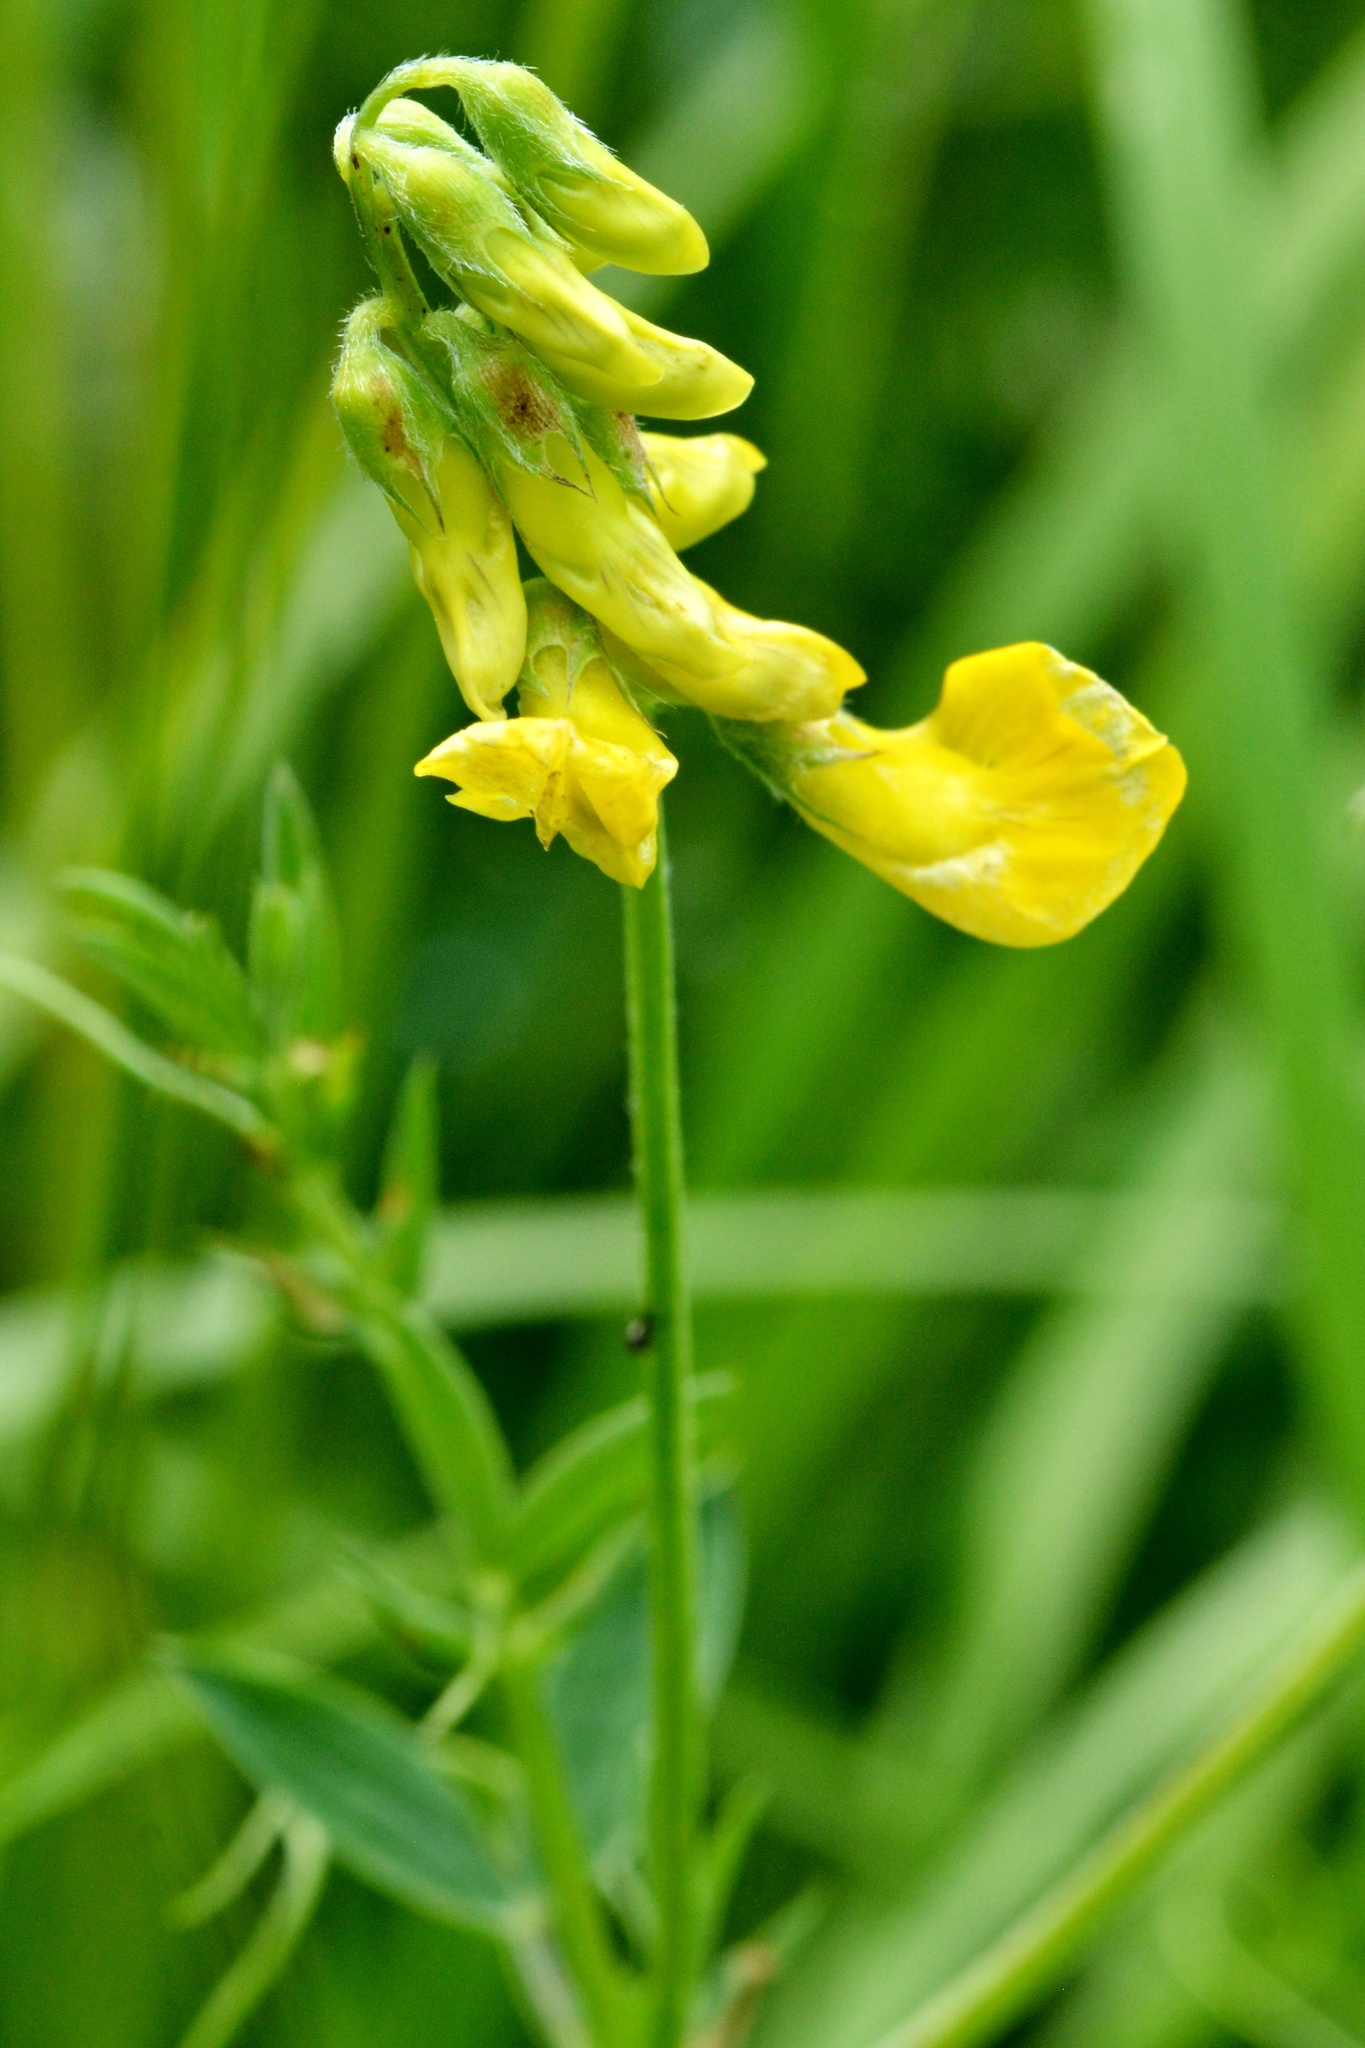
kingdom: Plantae
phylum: Tracheophyta
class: Magnoliopsida
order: Fabales
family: Fabaceae
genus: Lathyrus
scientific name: Lathyrus pratensis
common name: Meadow vetchling
